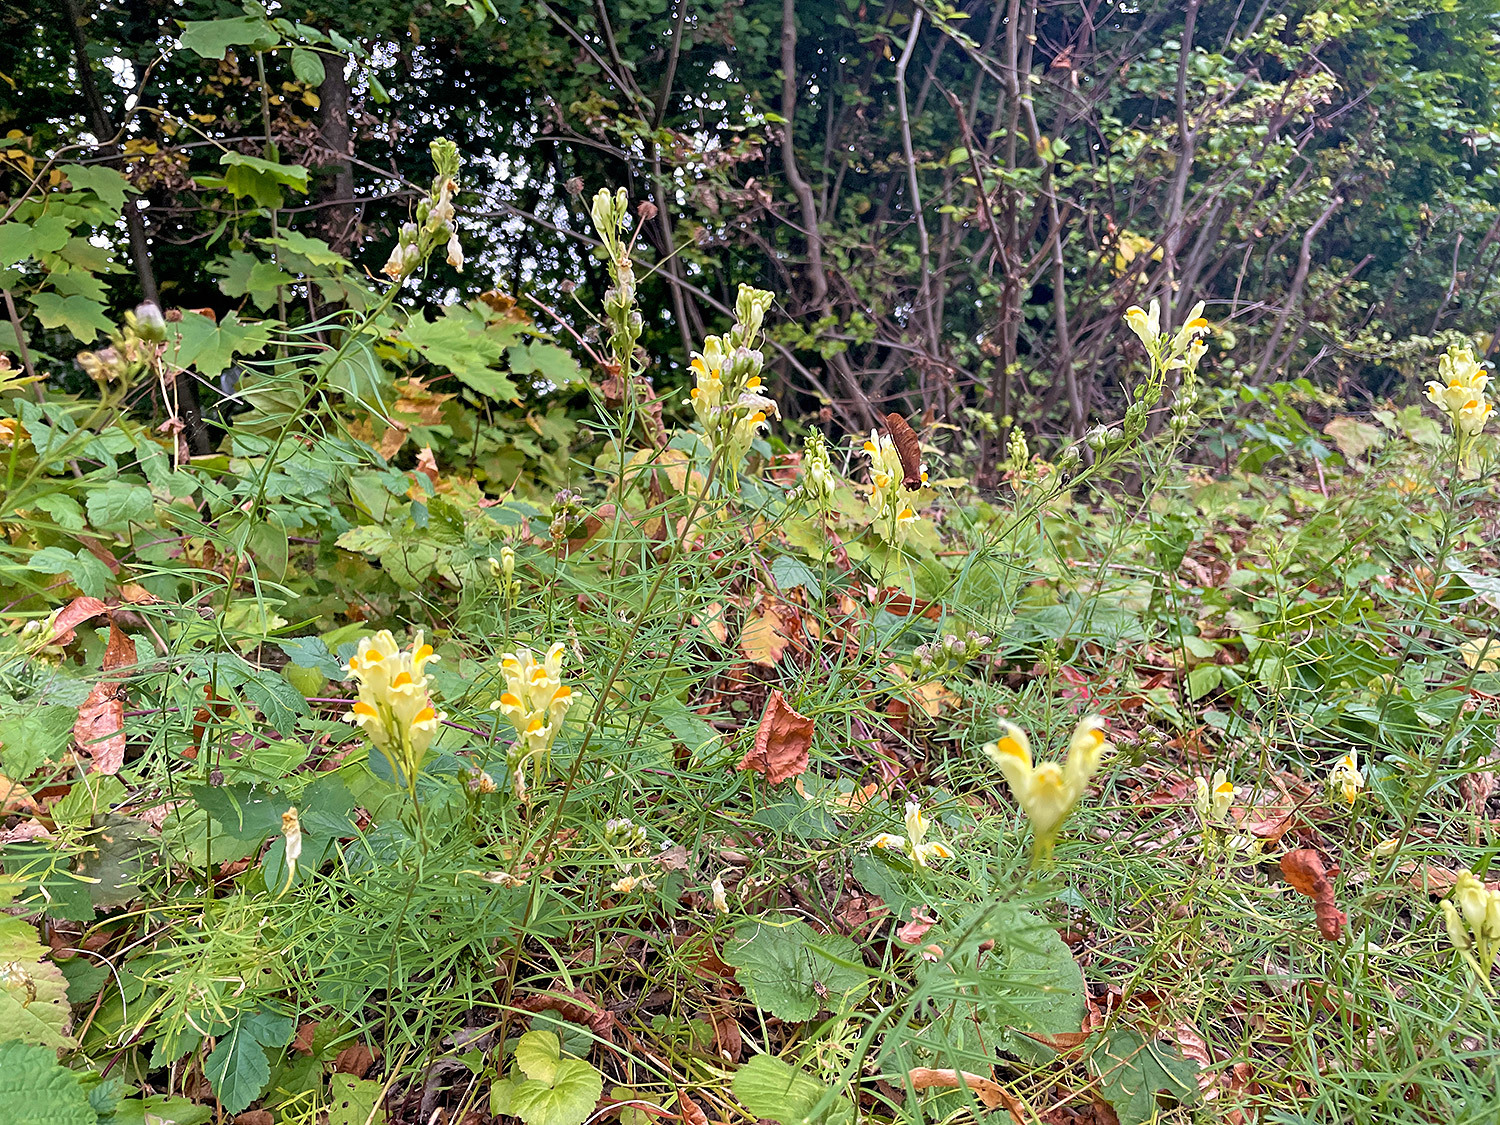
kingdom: Plantae
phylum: Tracheophyta
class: Magnoliopsida
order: Lamiales
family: Plantaginaceae
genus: Linaria
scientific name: Linaria vulgaris
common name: Butter and eggs
